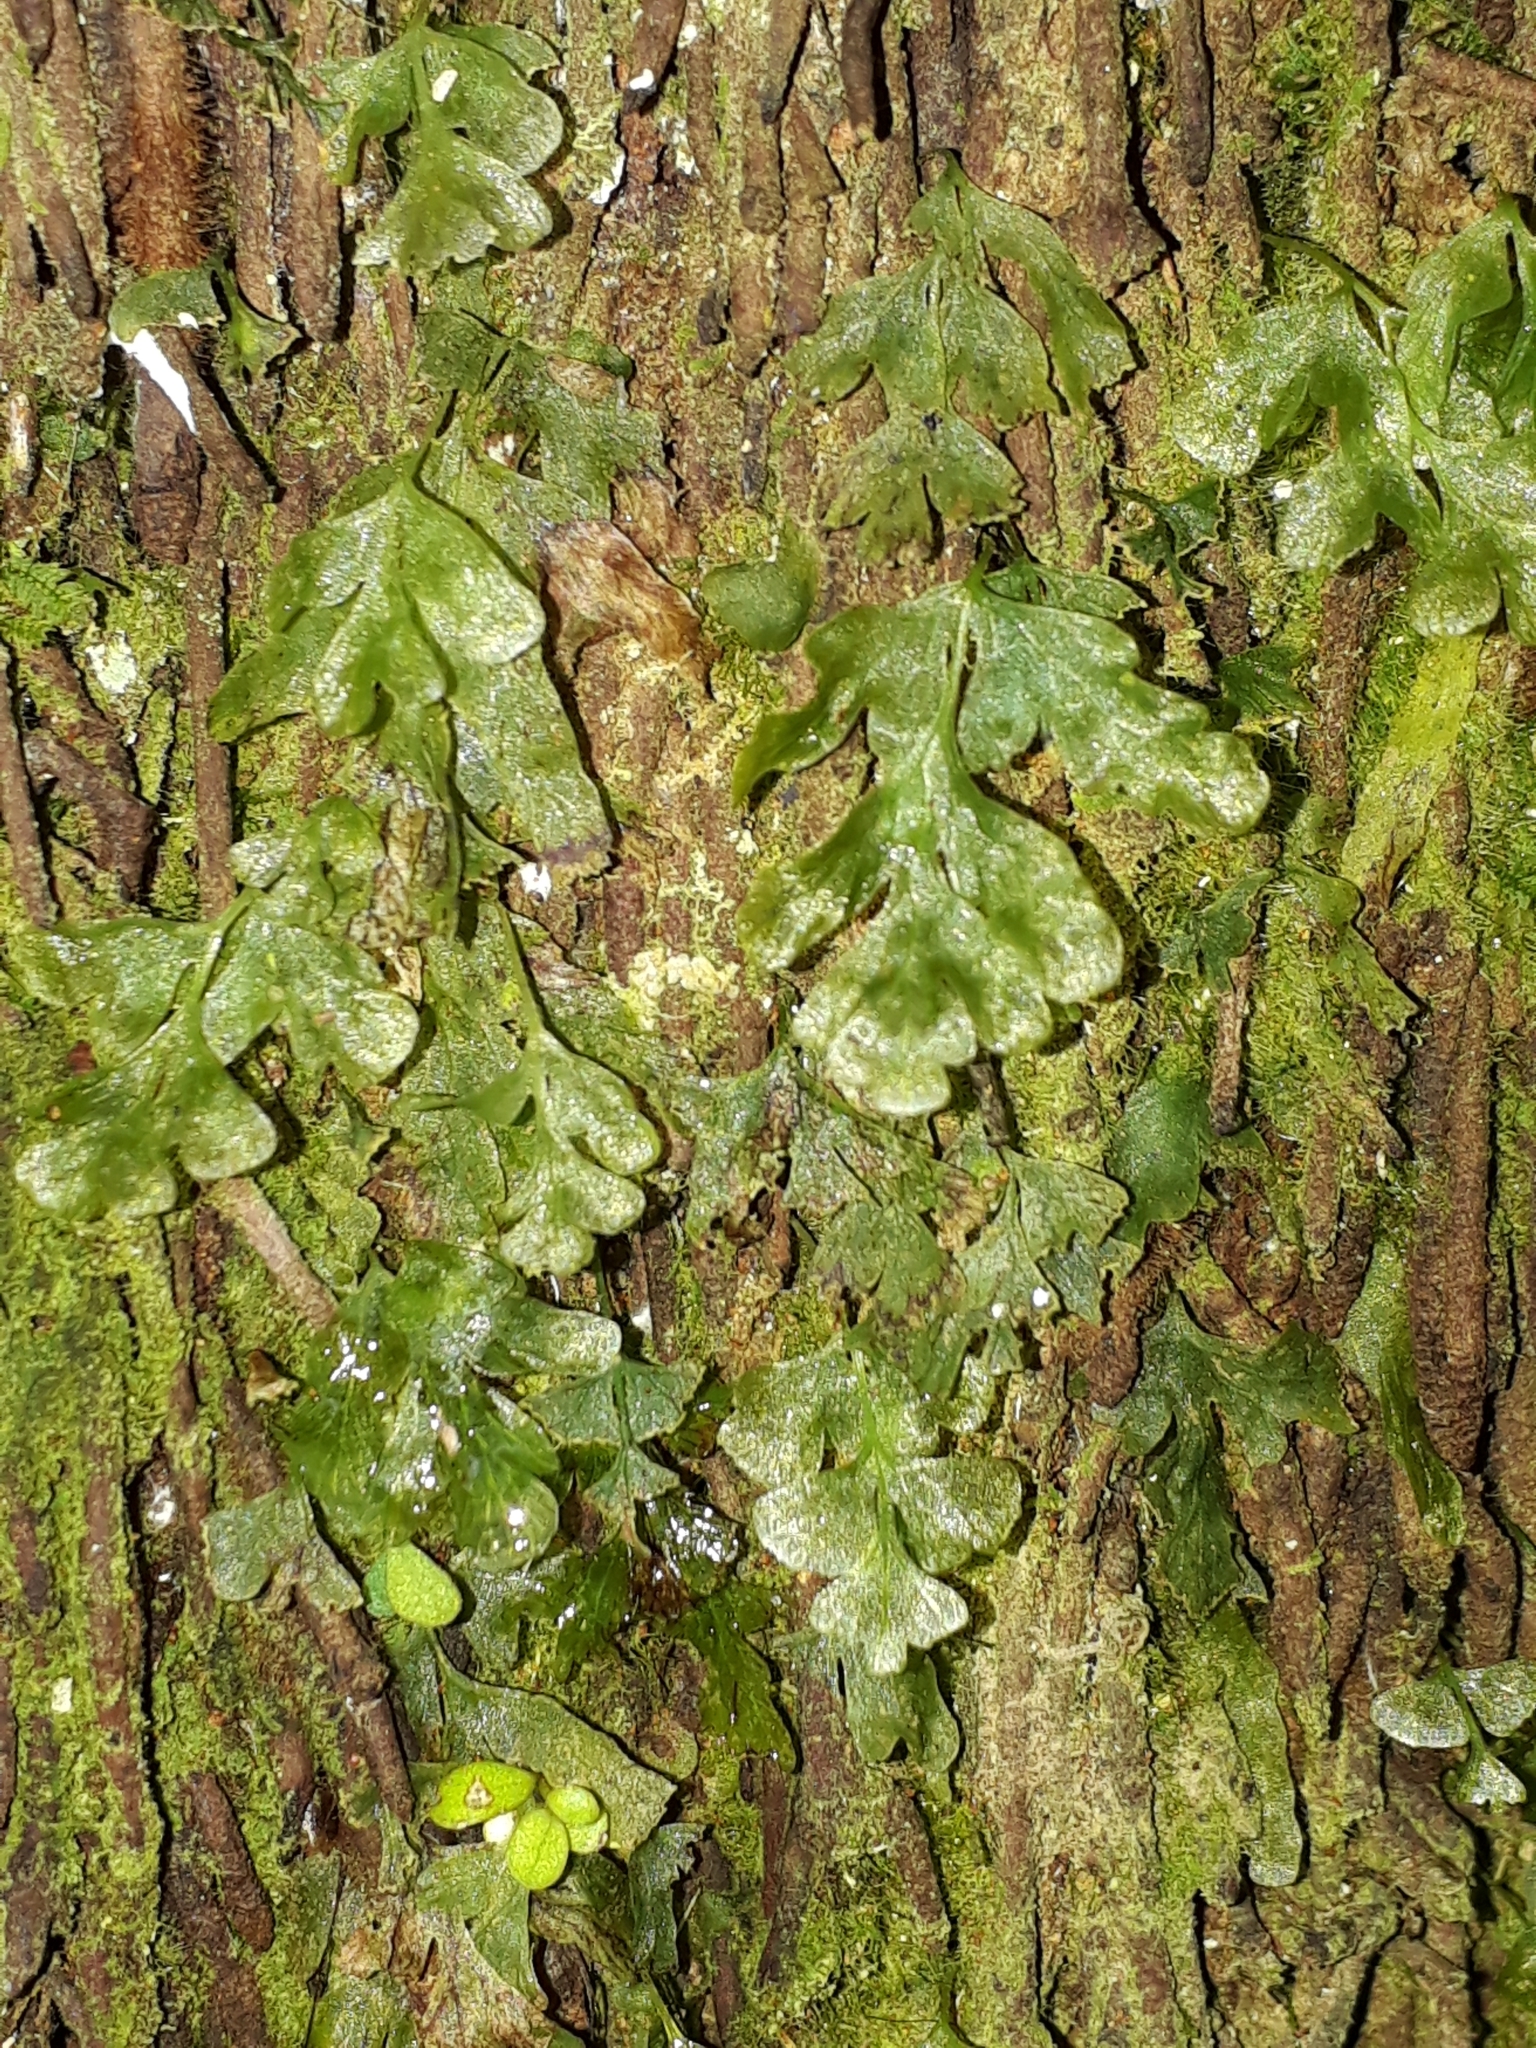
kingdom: Plantae
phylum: Tracheophyta
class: Polypodiopsida
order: Hymenophyllales
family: Hymenophyllaceae
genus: Polyphlebium
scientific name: Polyphlebium venosum
